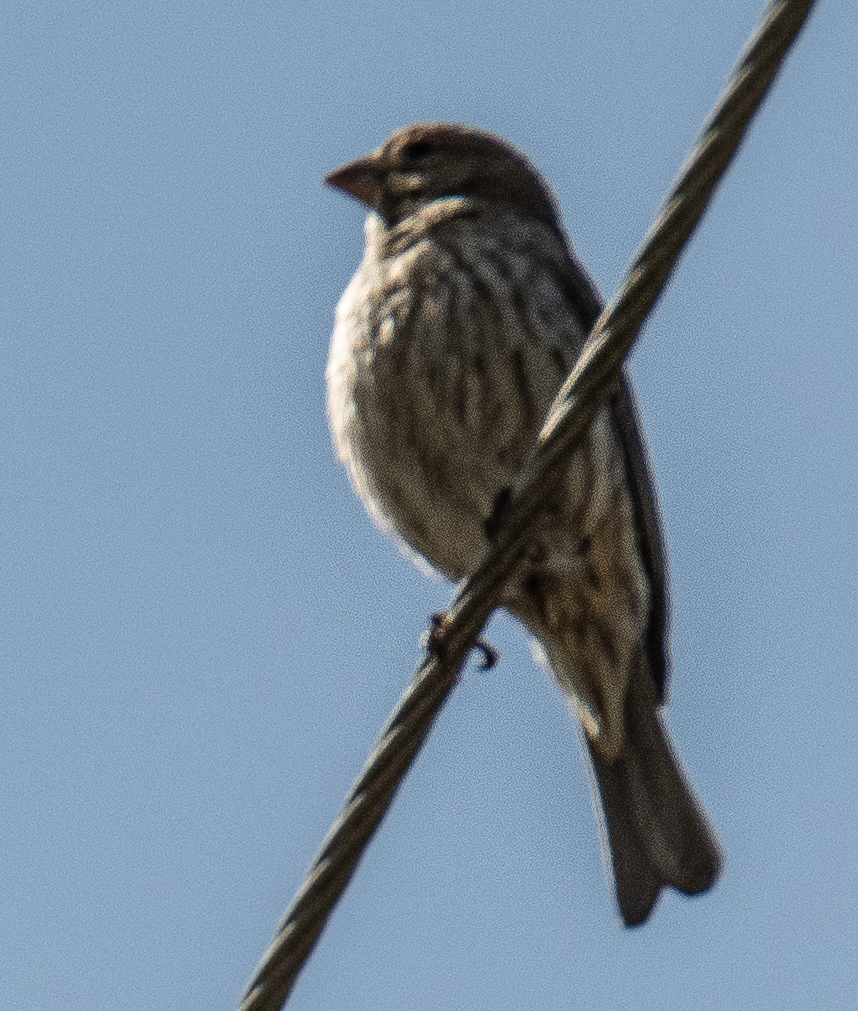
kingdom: Animalia
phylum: Chordata
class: Aves
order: Passeriformes
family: Fringillidae
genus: Haemorhous
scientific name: Haemorhous mexicanus
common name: House finch
